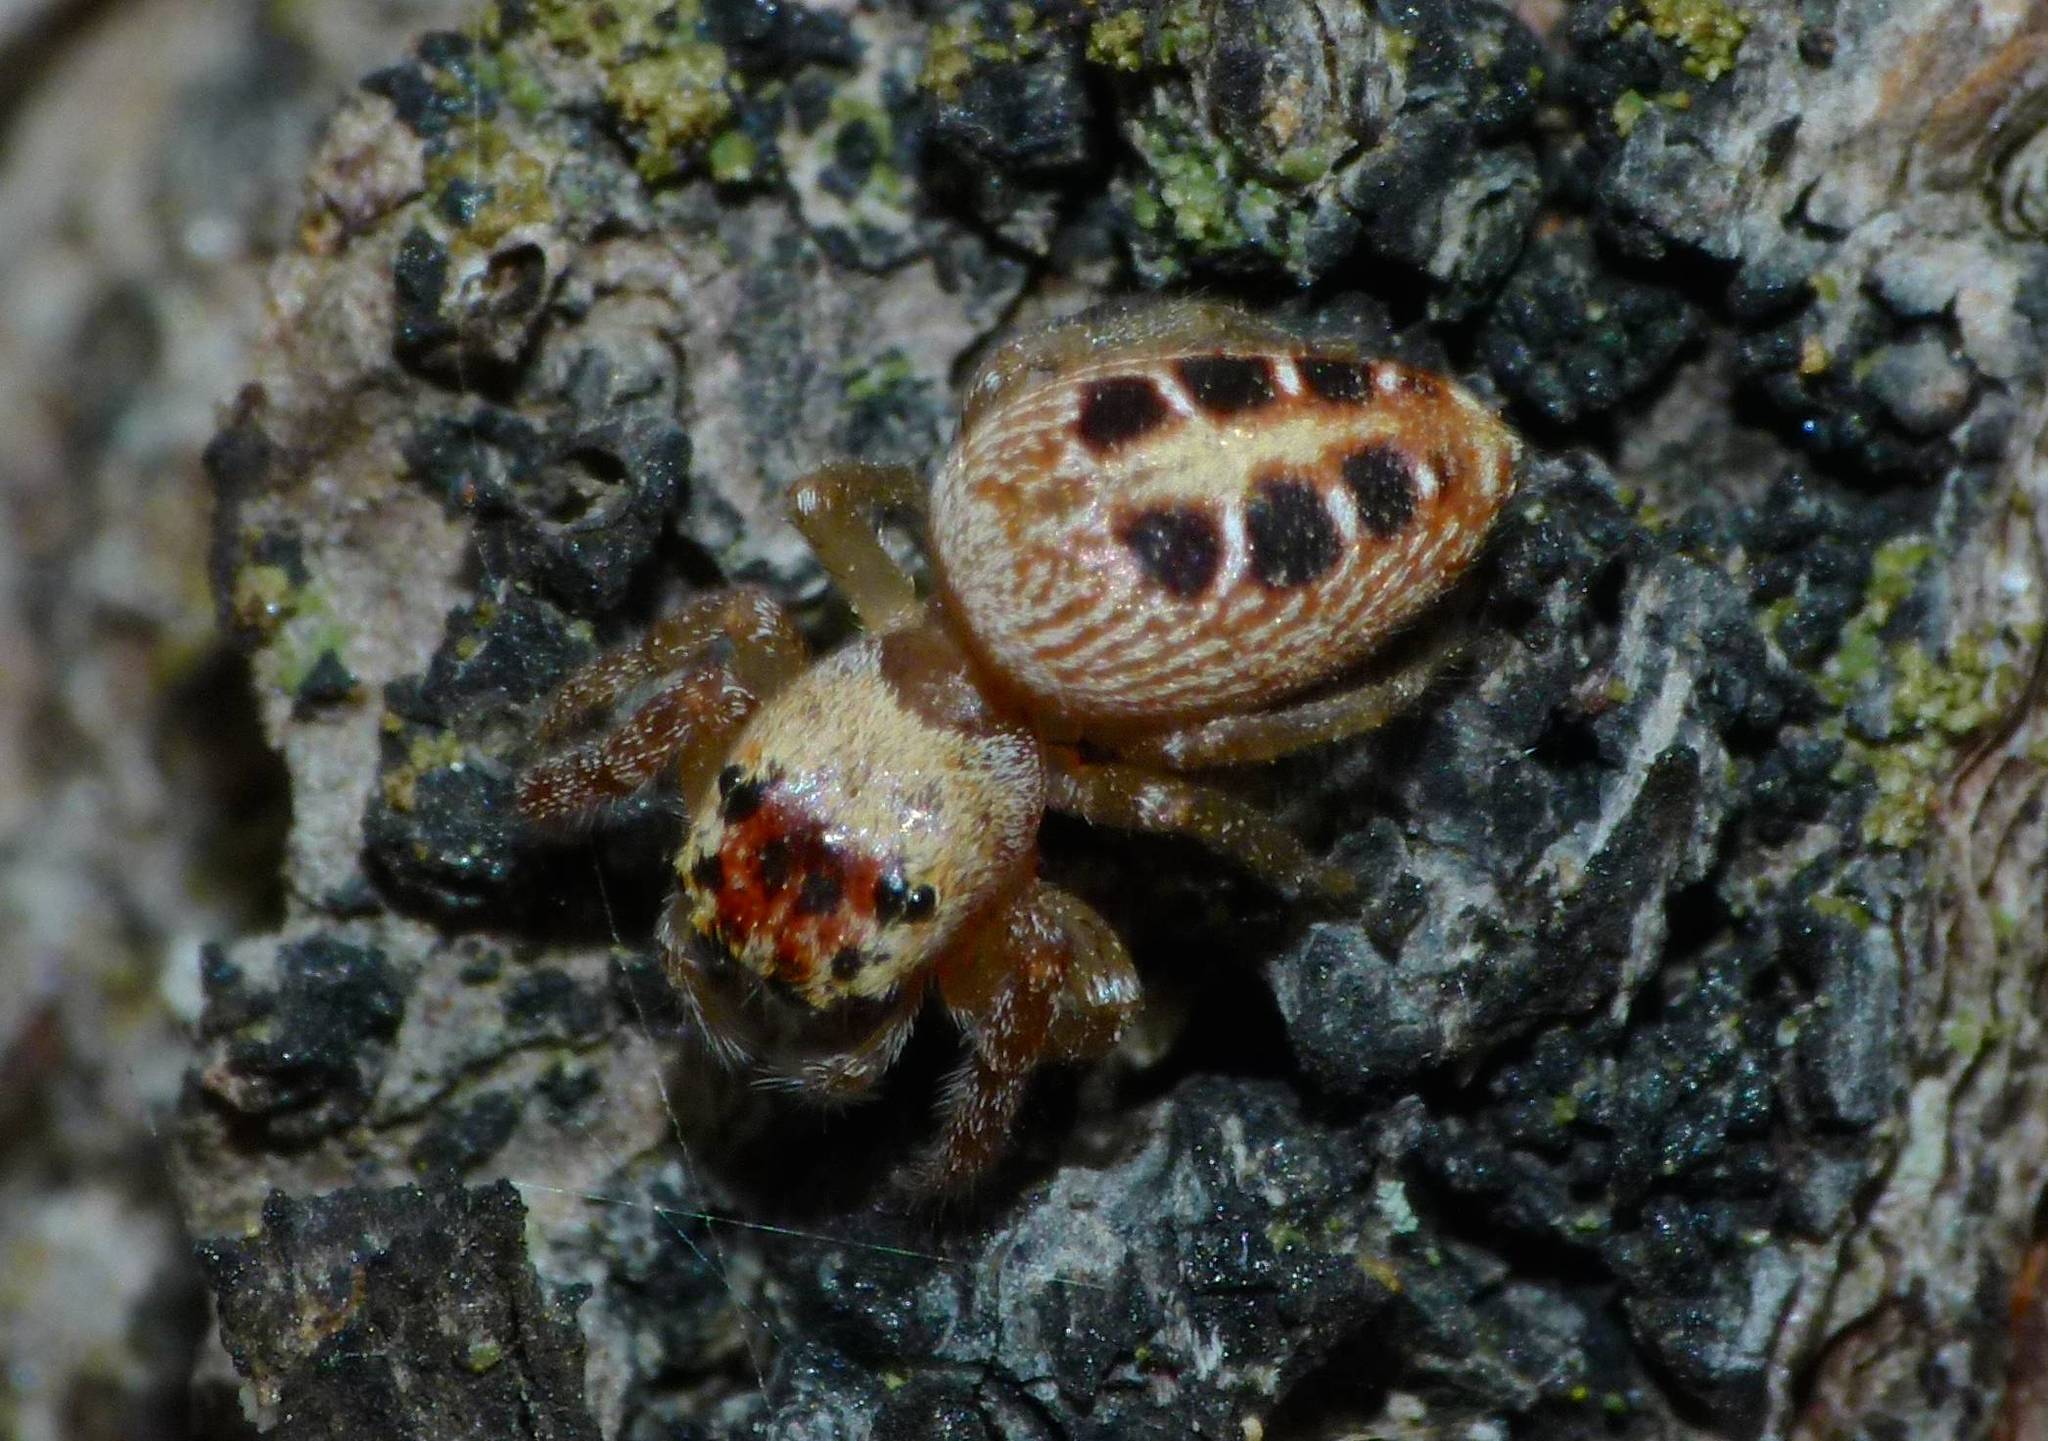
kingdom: Animalia
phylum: Arthropoda
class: Arachnida
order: Araneae
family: Salticidae
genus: Opisthoncus
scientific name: Opisthoncus sexmaculatus
